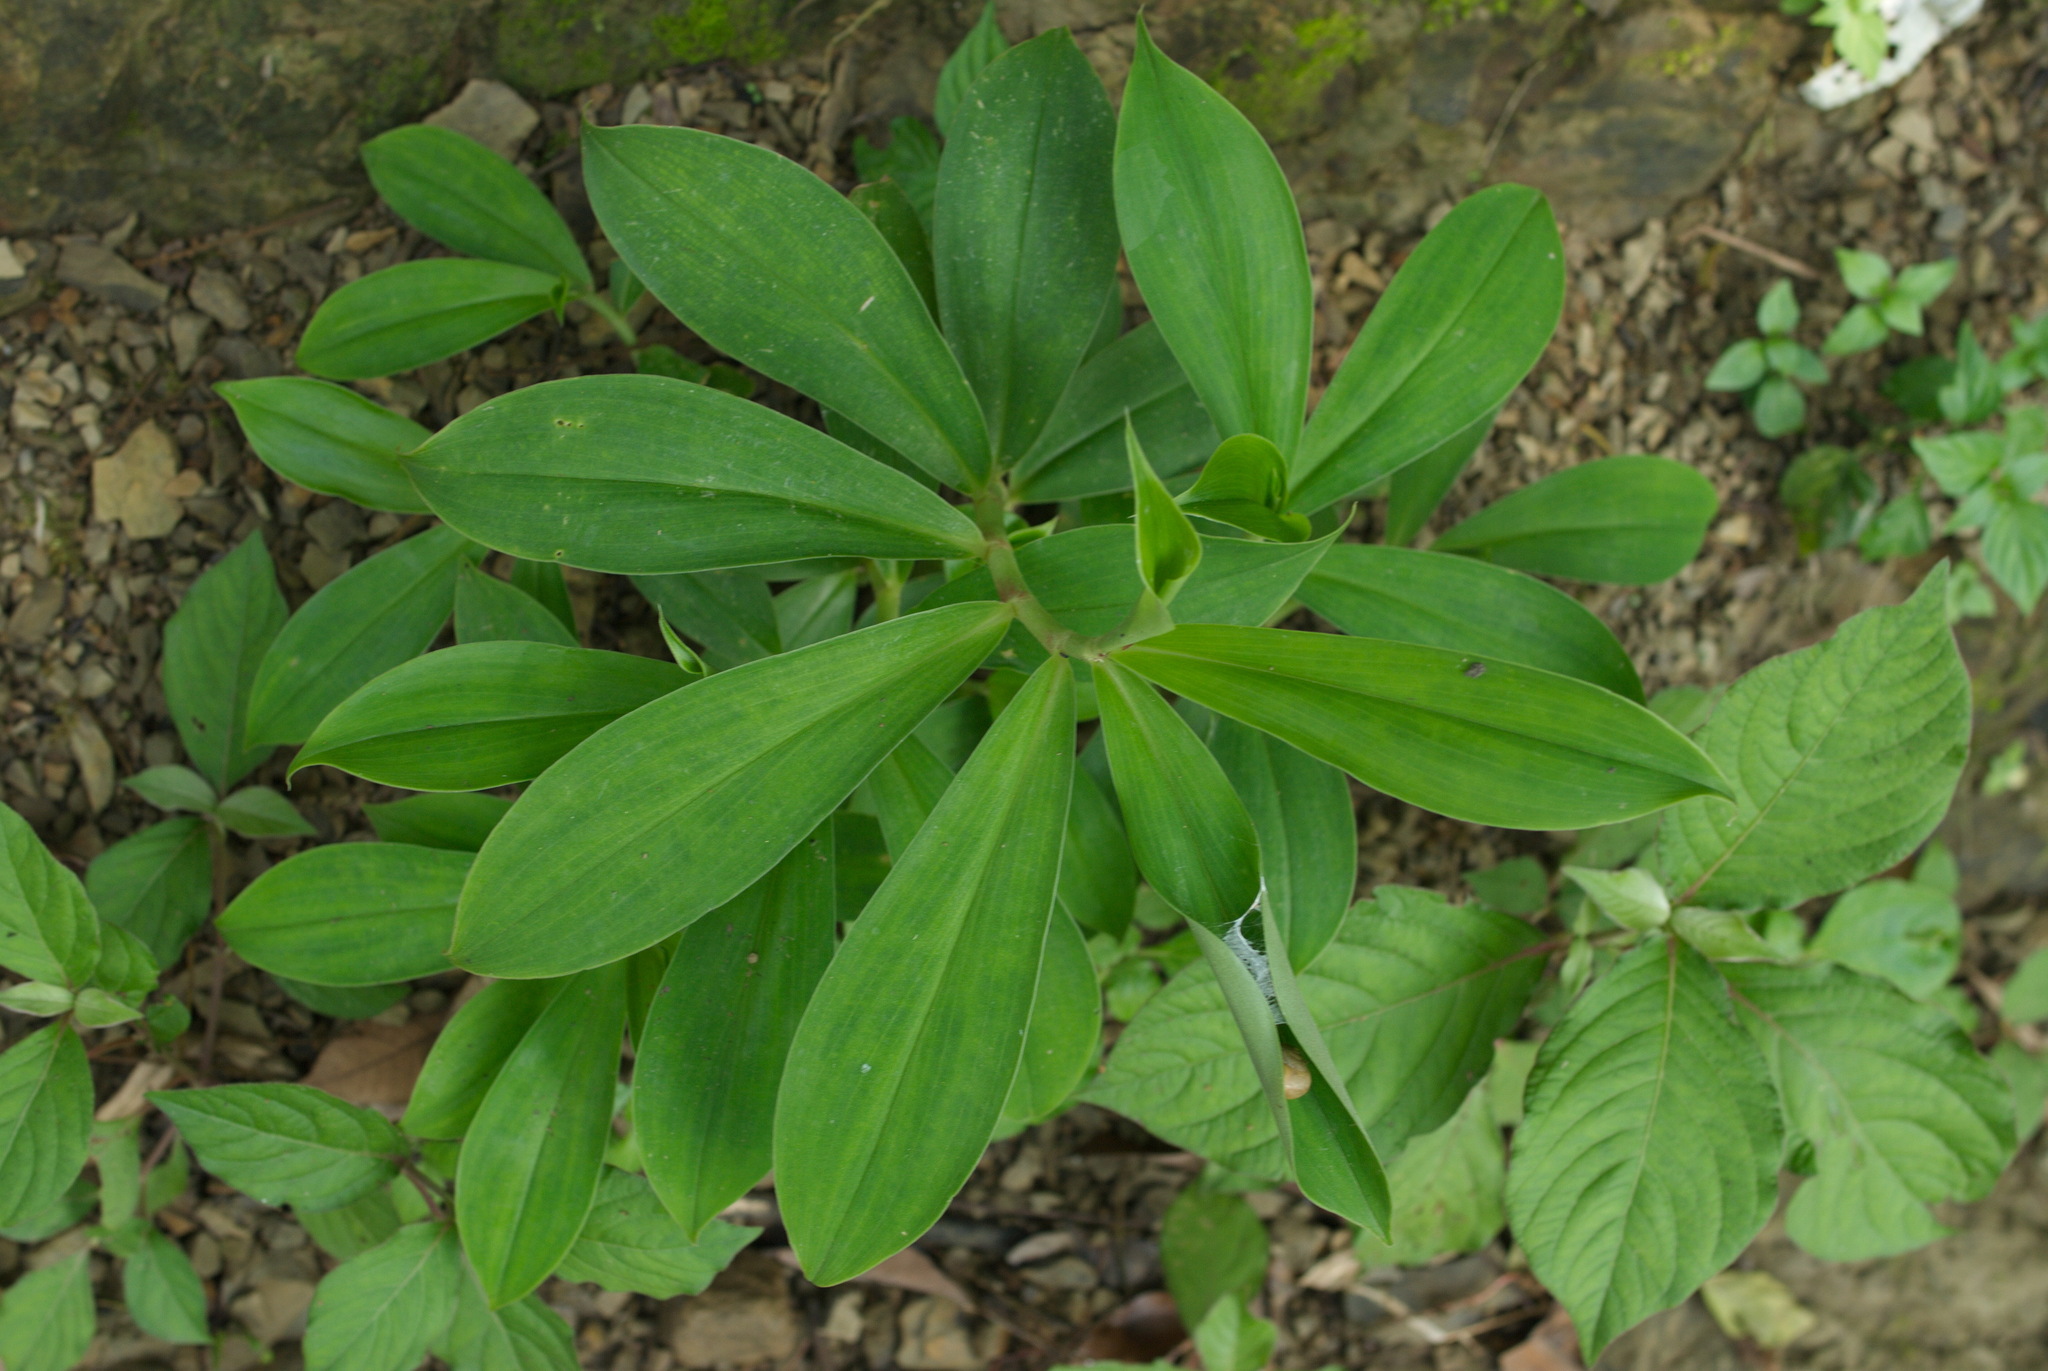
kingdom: Plantae
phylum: Tracheophyta
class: Liliopsida
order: Zingiberales
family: Costaceae
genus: Hellenia
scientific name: Hellenia speciosa
